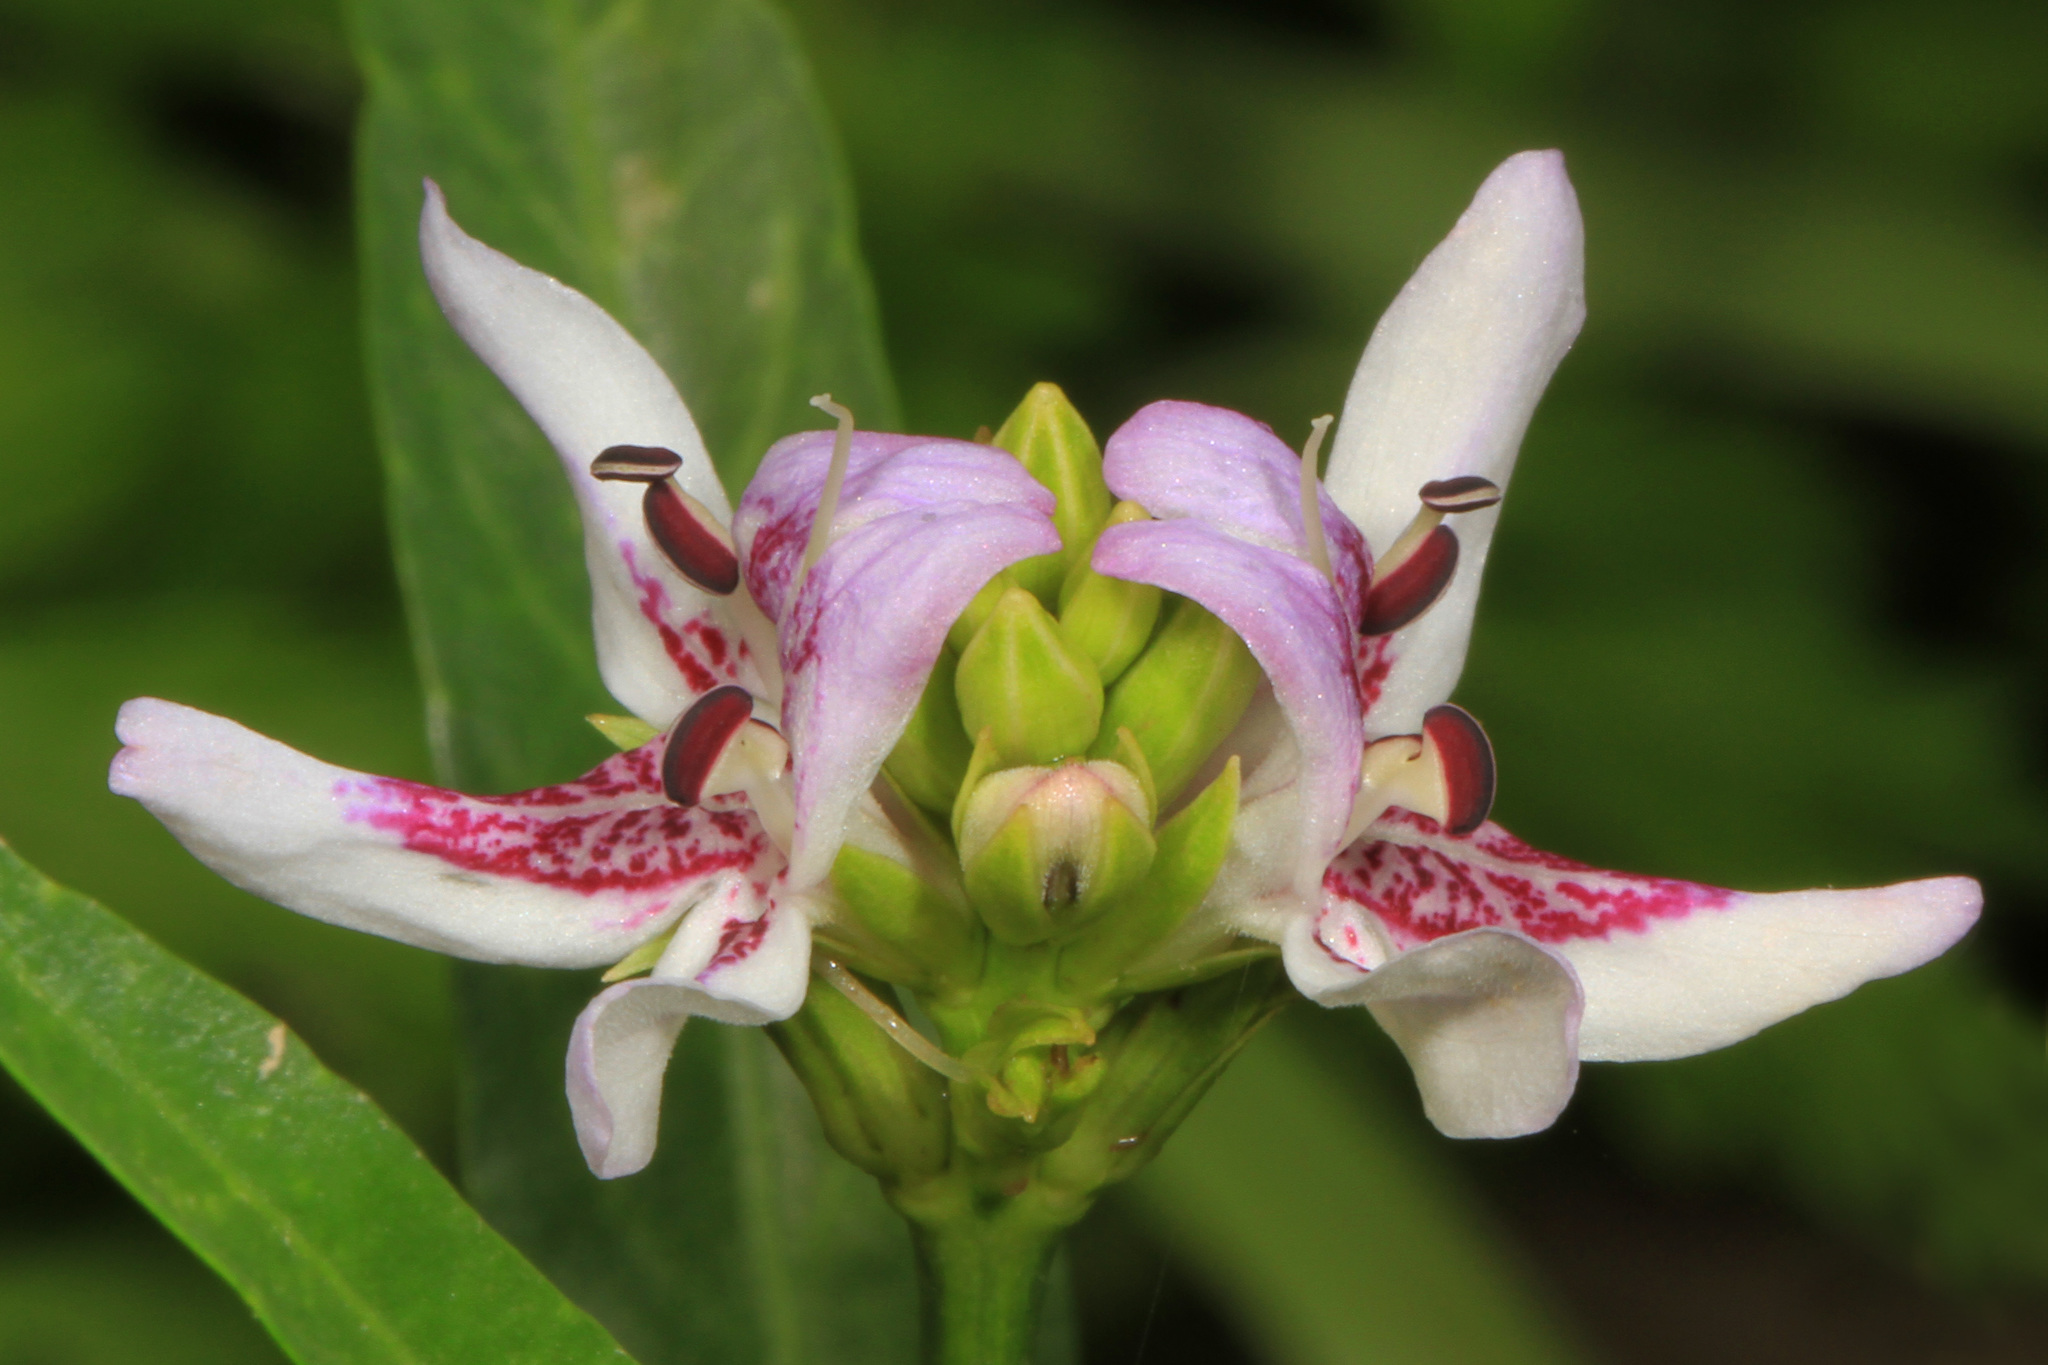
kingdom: Plantae
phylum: Tracheophyta
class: Magnoliopsida
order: Lamiales
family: Acanthaceae
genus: Dianthera
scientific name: Dianthera americana
